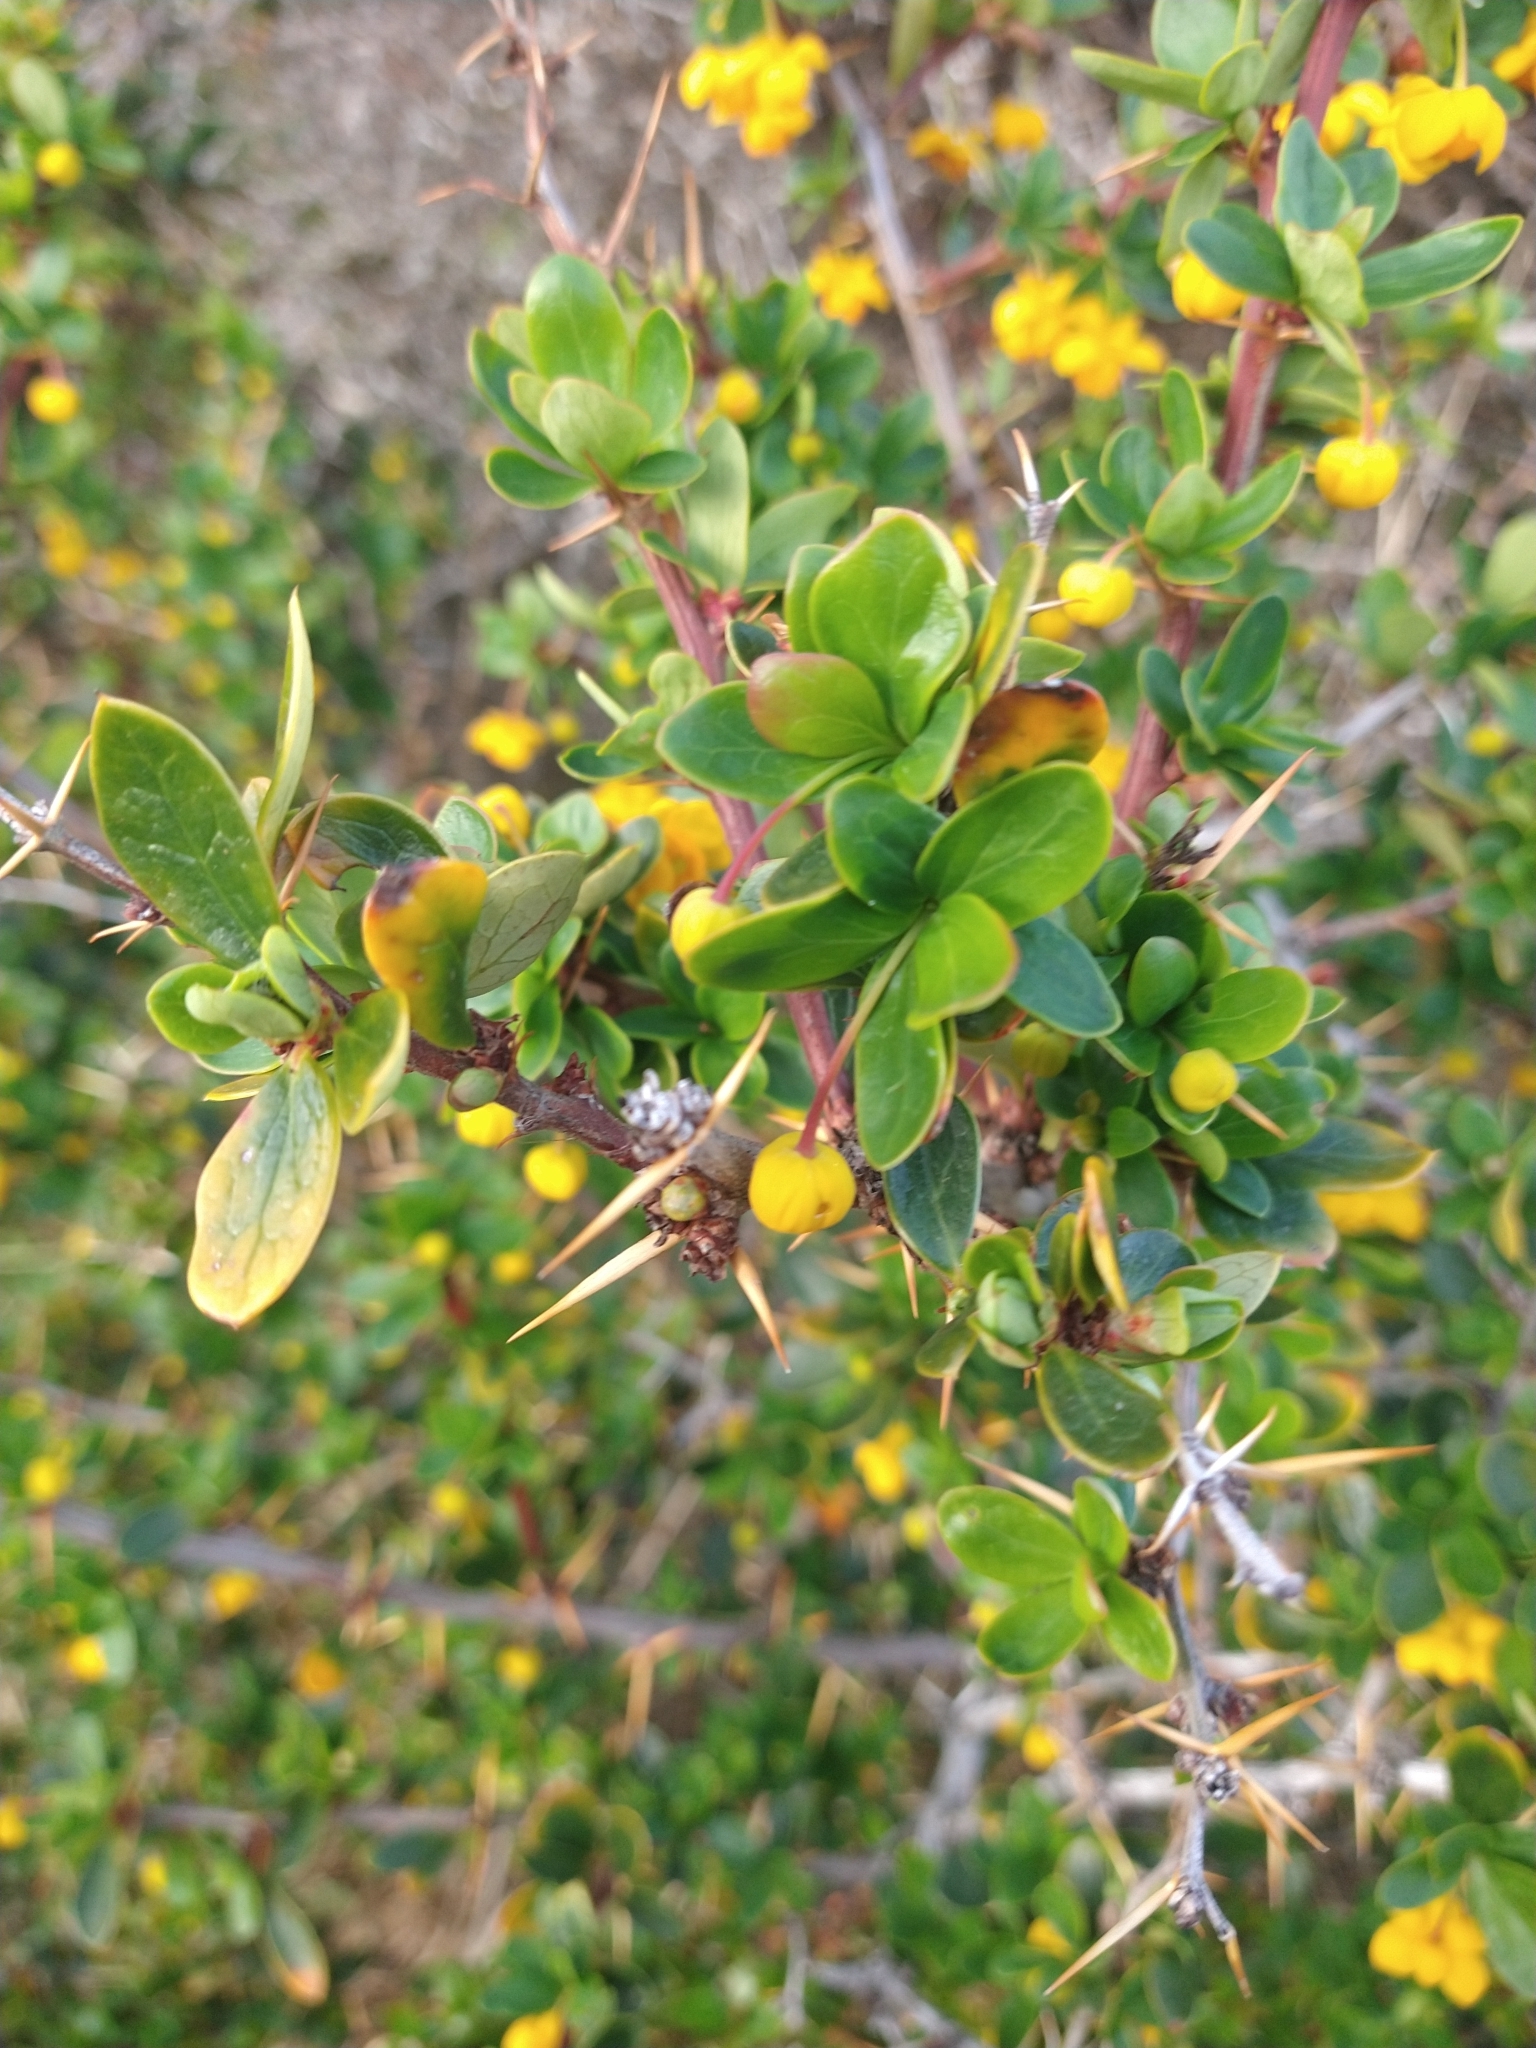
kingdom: Plantae
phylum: Tracheophyta
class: Magnoliopsida
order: Ranunculales
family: Berberidaceae
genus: Berberis
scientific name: Berberis microphylla
